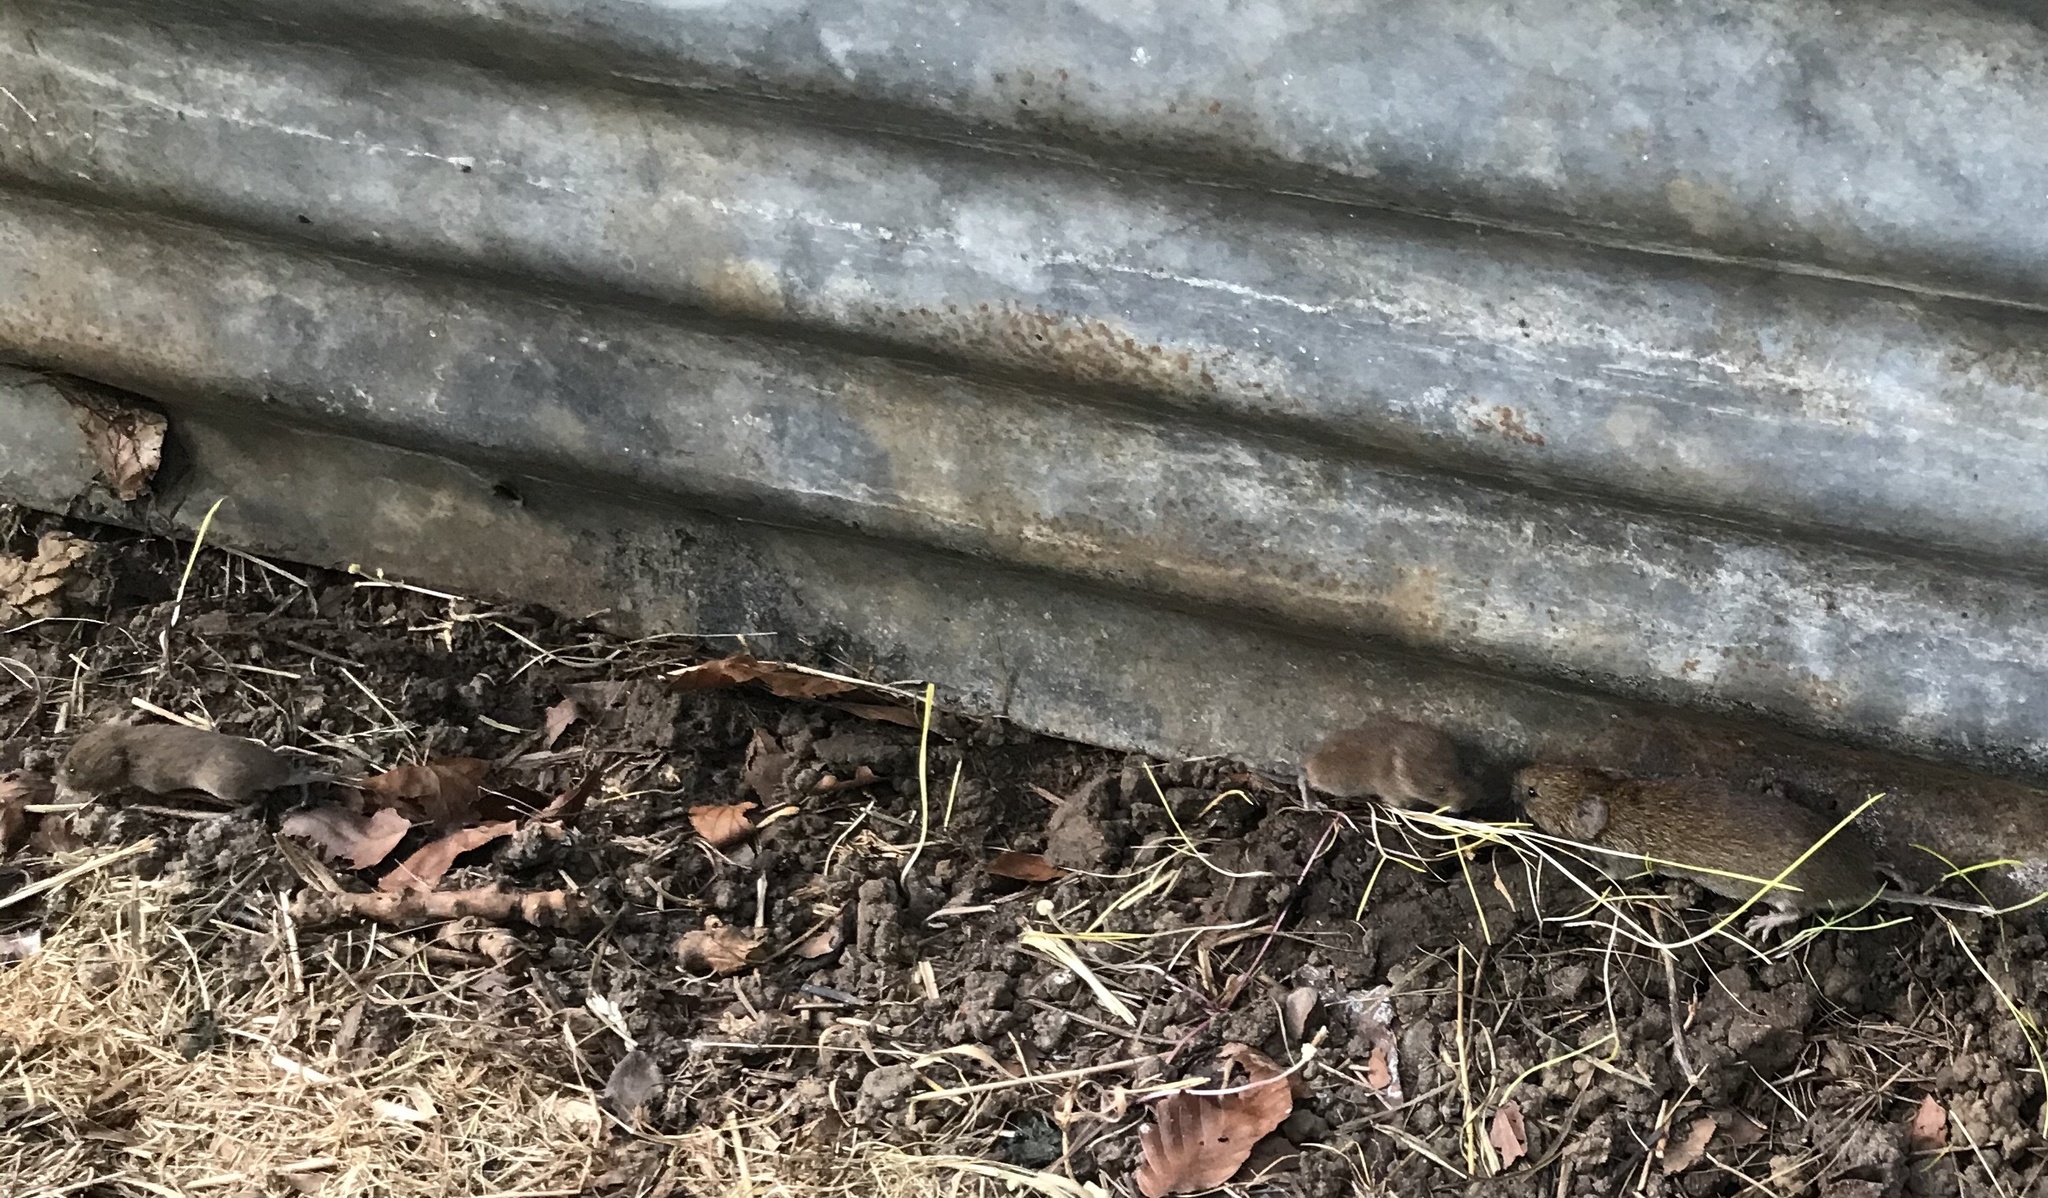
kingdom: Animalia
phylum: Chordata
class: Mammalia
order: Rodentia
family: Cricetidae
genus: Microtus
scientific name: Microtus agrestis
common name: Field vole
